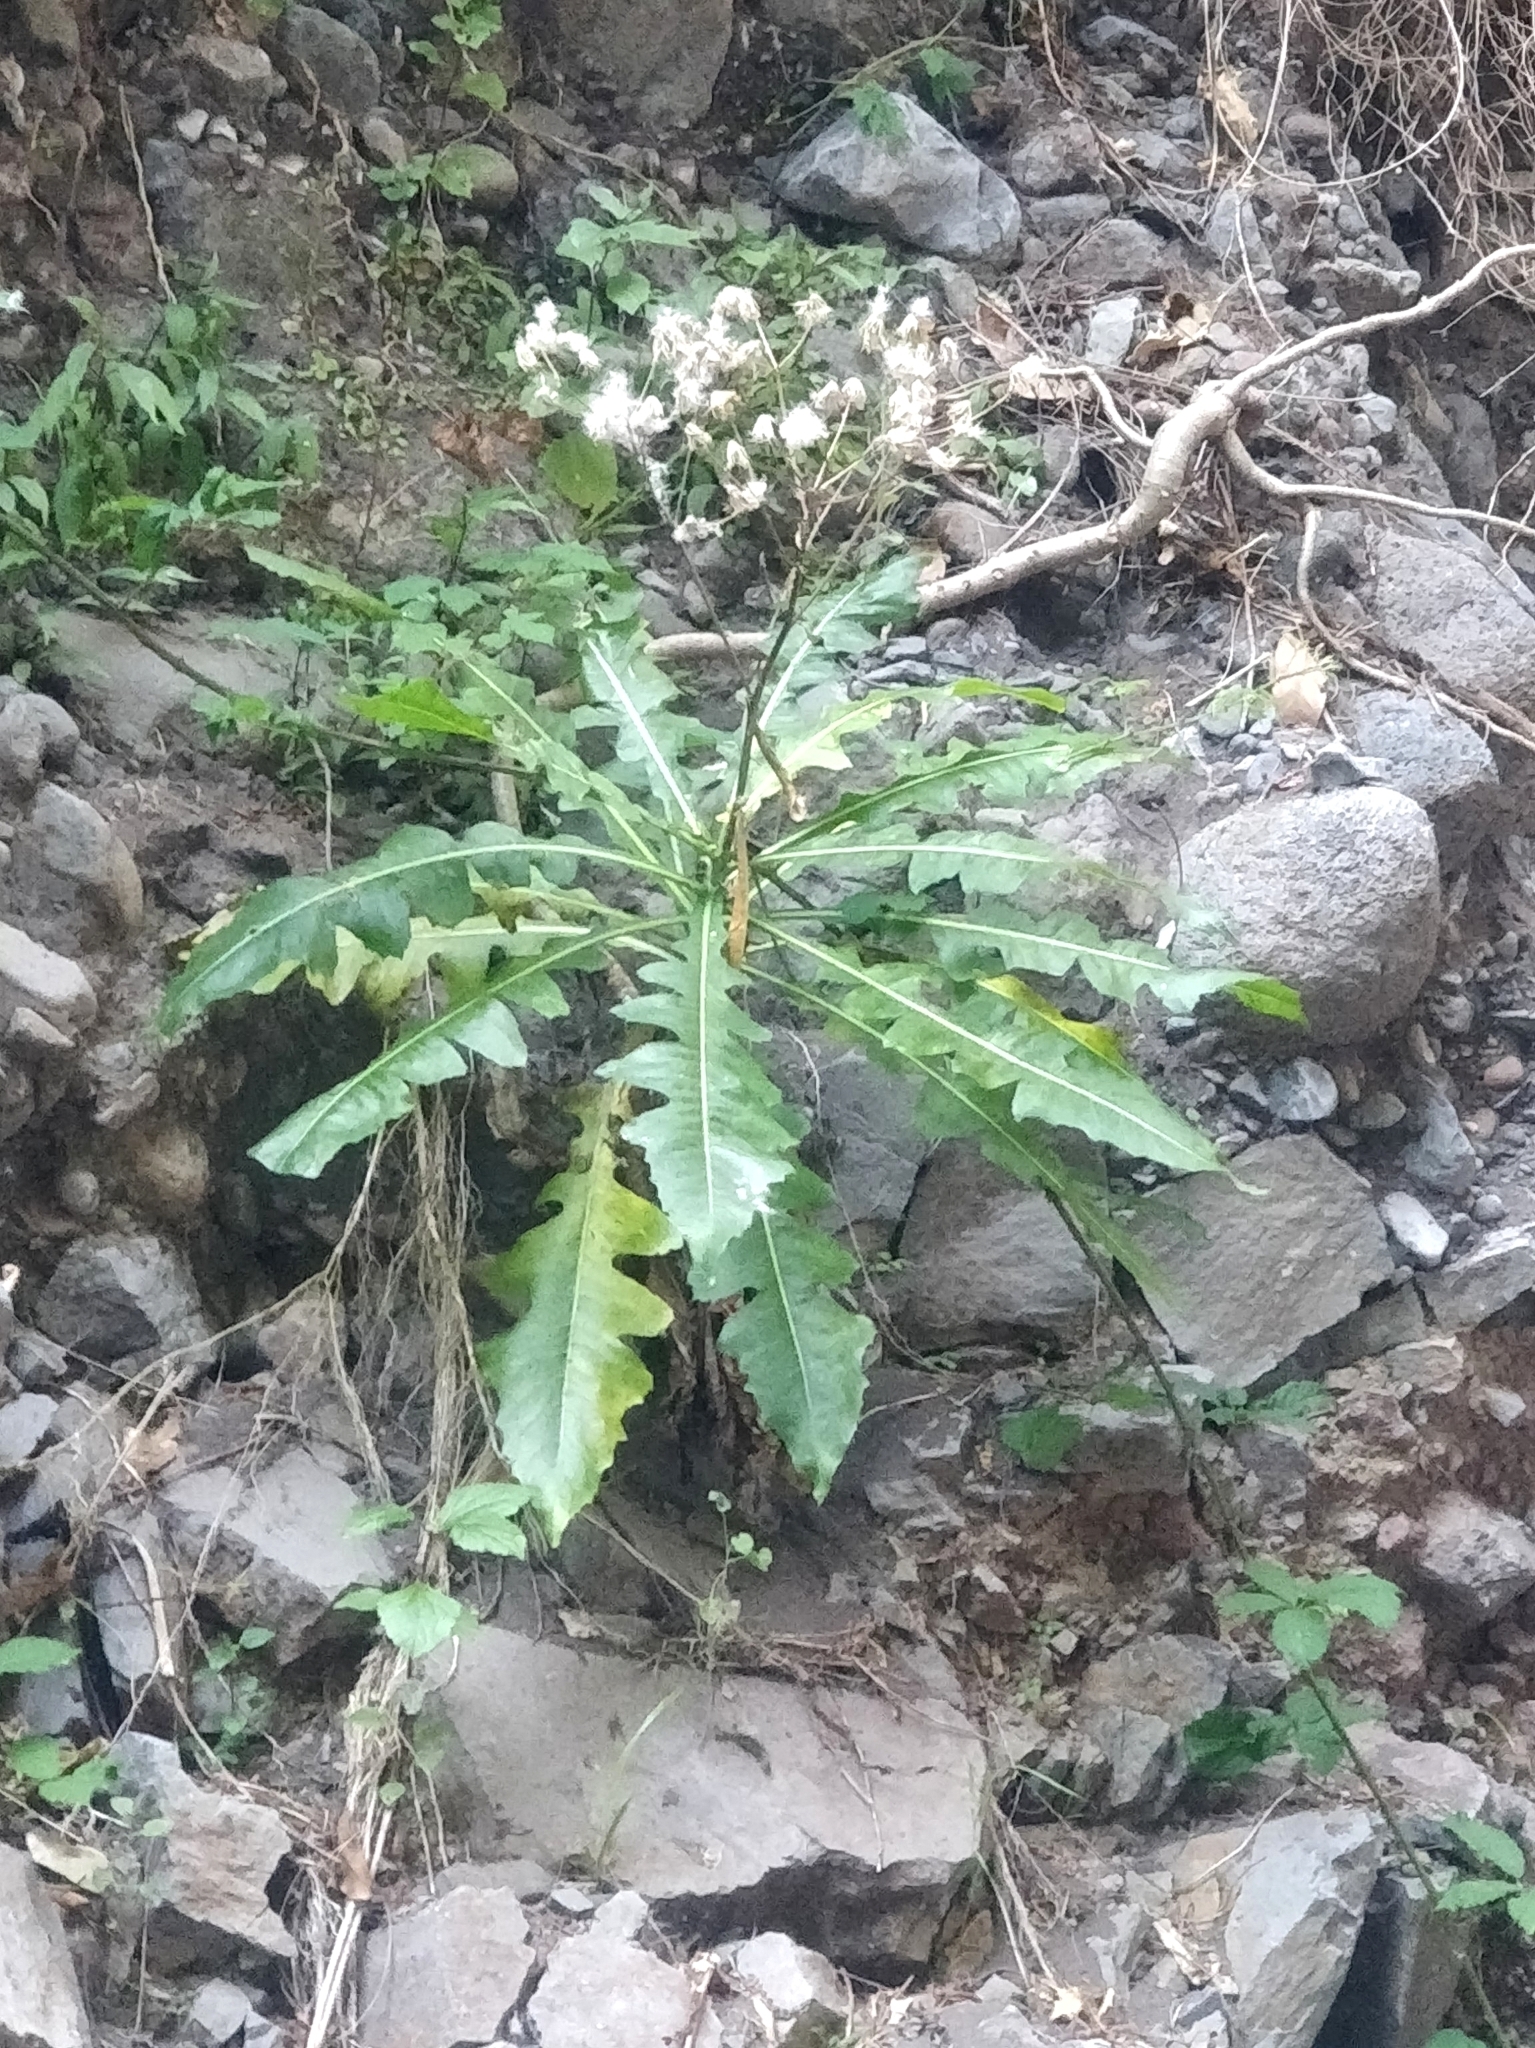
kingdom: Plantae
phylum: Tracheophyta
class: Magnoliopsida
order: Asterales
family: Asteraceae
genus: Sonchus
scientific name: Sonchus fruticosus
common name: Shrubby sow-thistle
